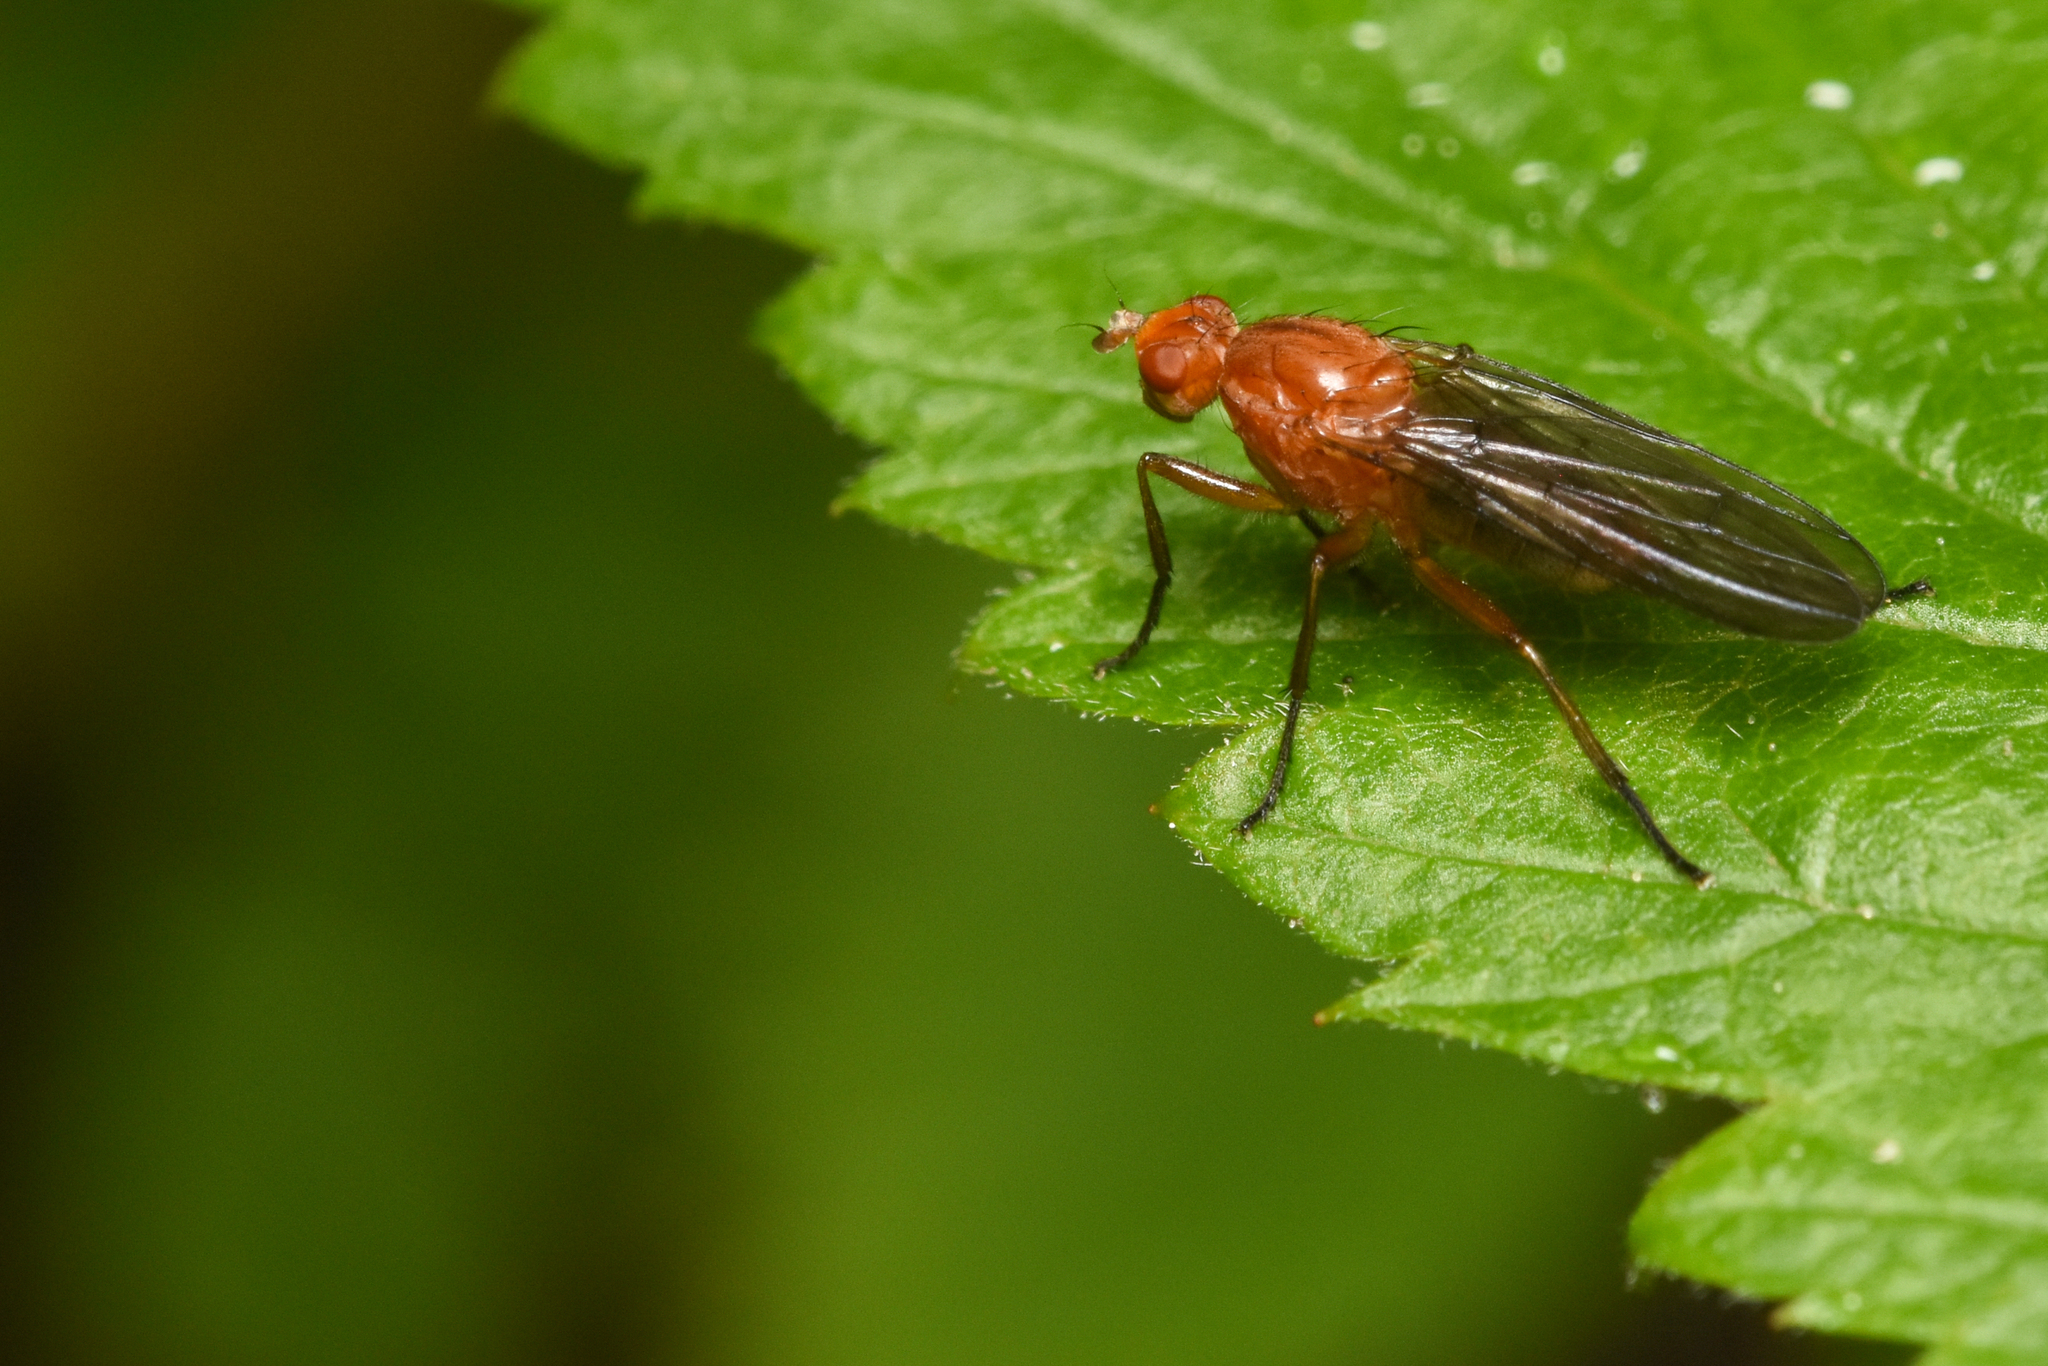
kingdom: Animalia
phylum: Arthropoda
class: Insecta
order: Diptera
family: Dryomyzidae
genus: Paradryomyza
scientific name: Paradryomyza setosa
